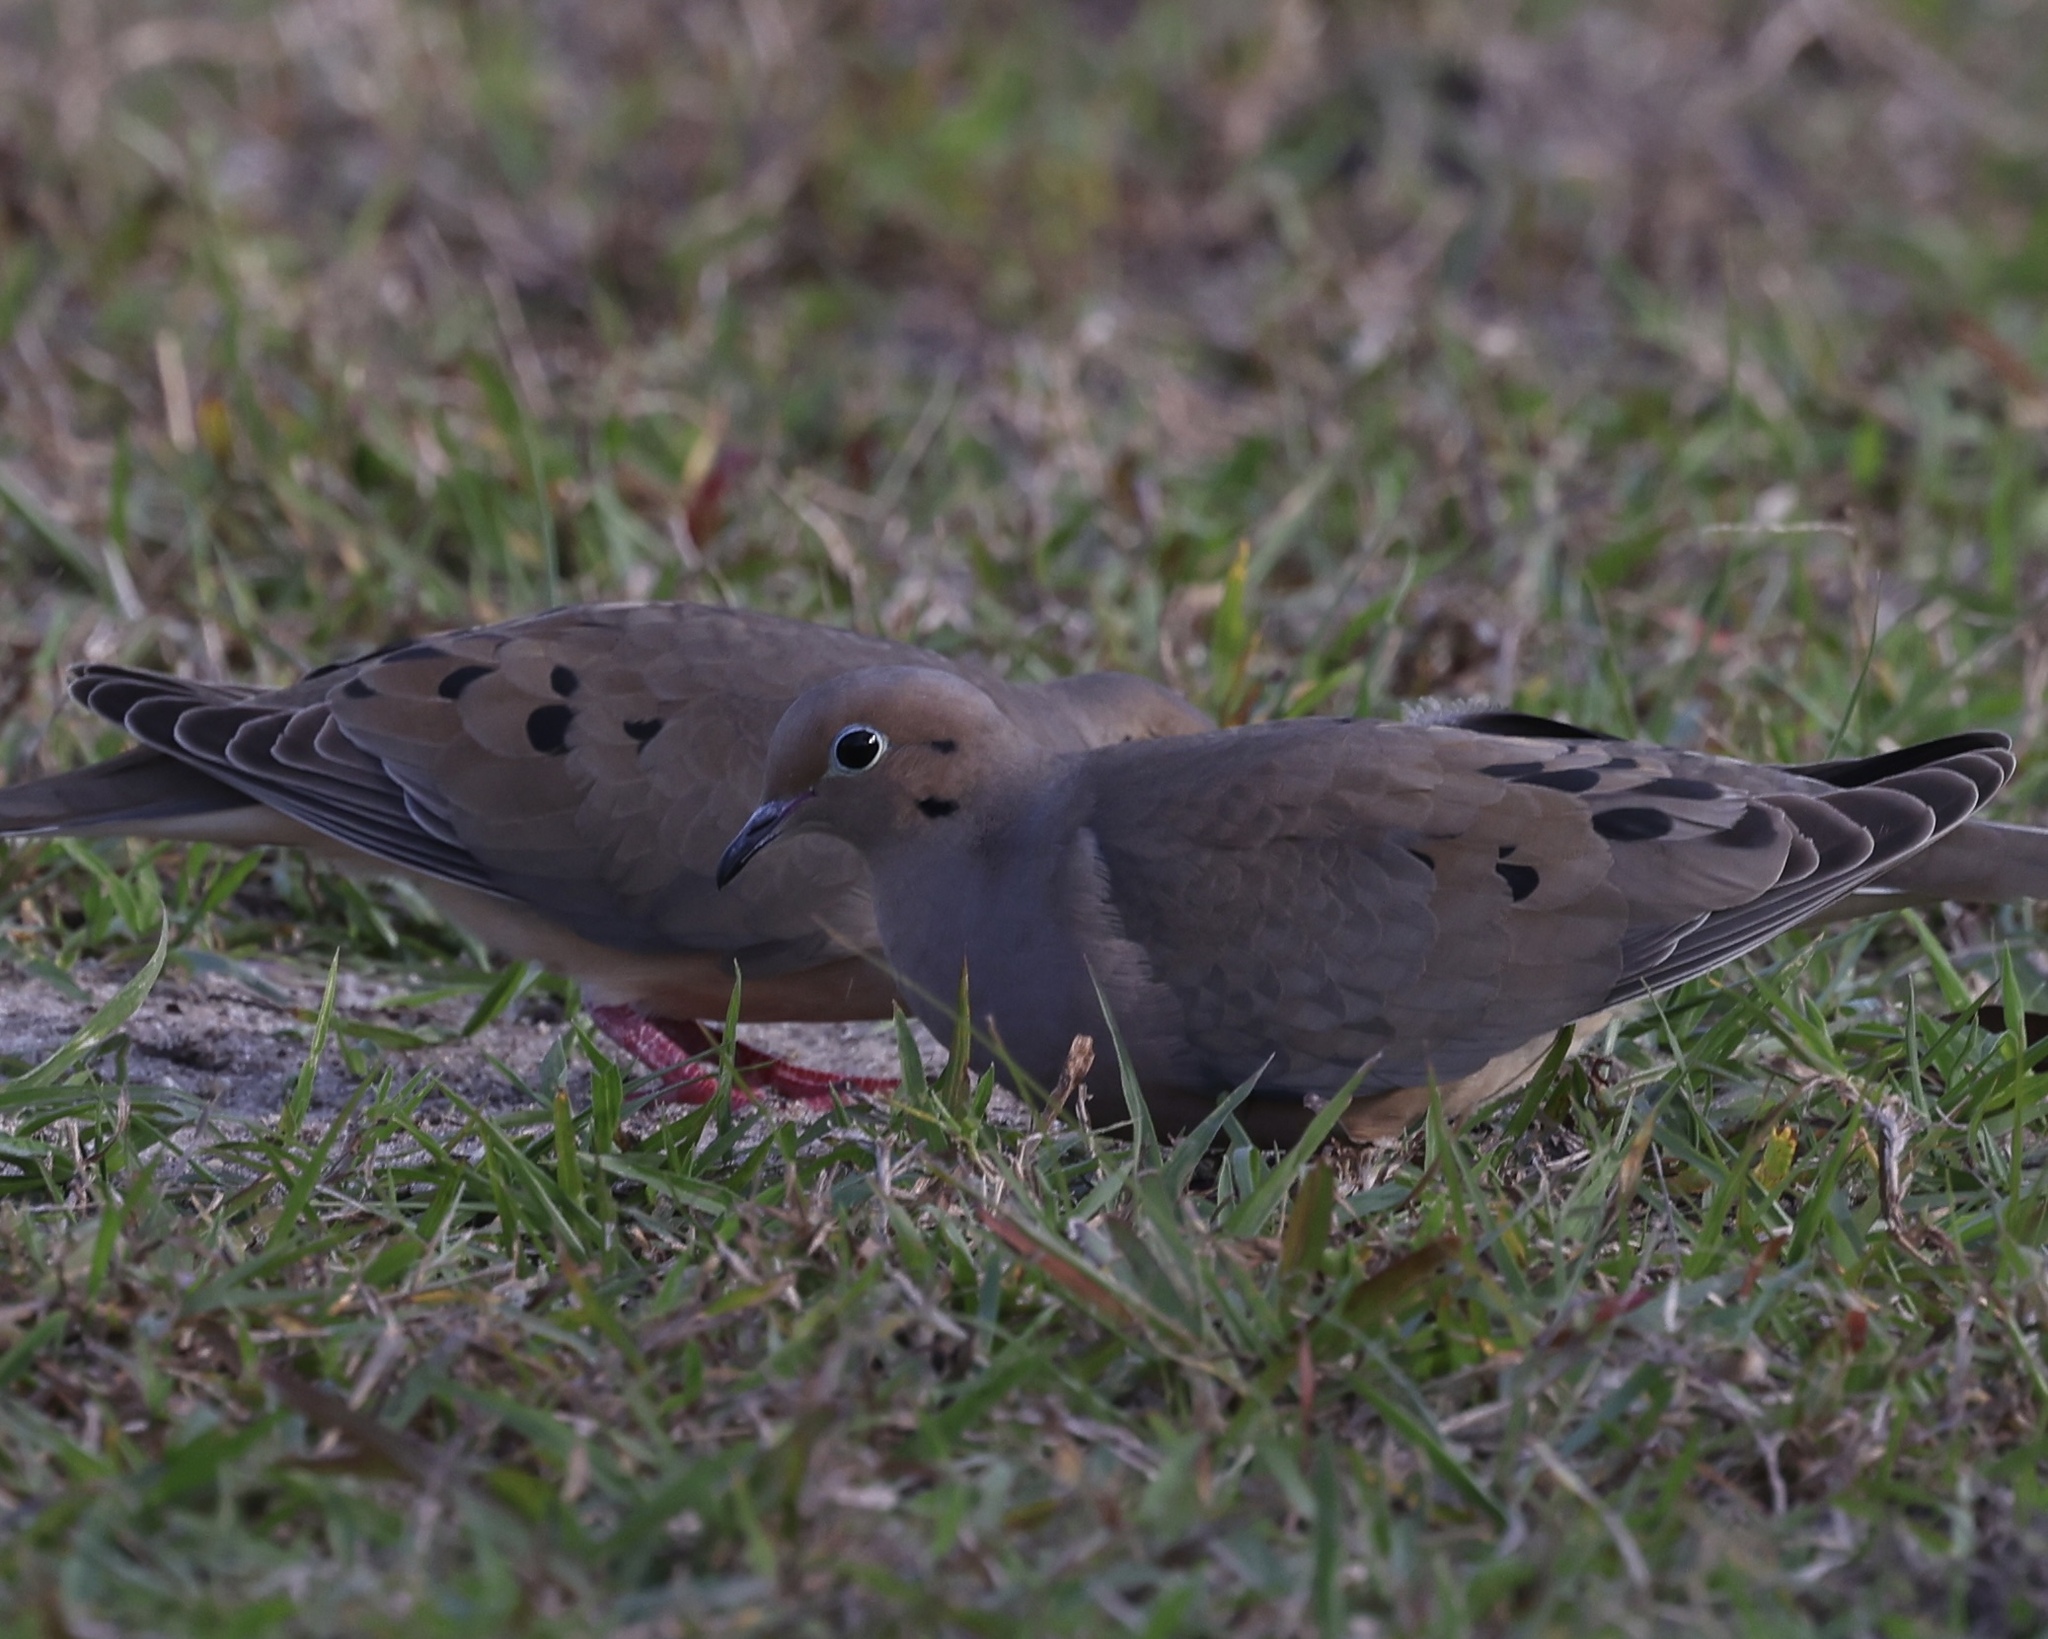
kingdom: Animalia
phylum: Chordata
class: Aves
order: Columbiformes
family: Columbidae
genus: Zenaida
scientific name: Zenaida macroura
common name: Mourning dove
